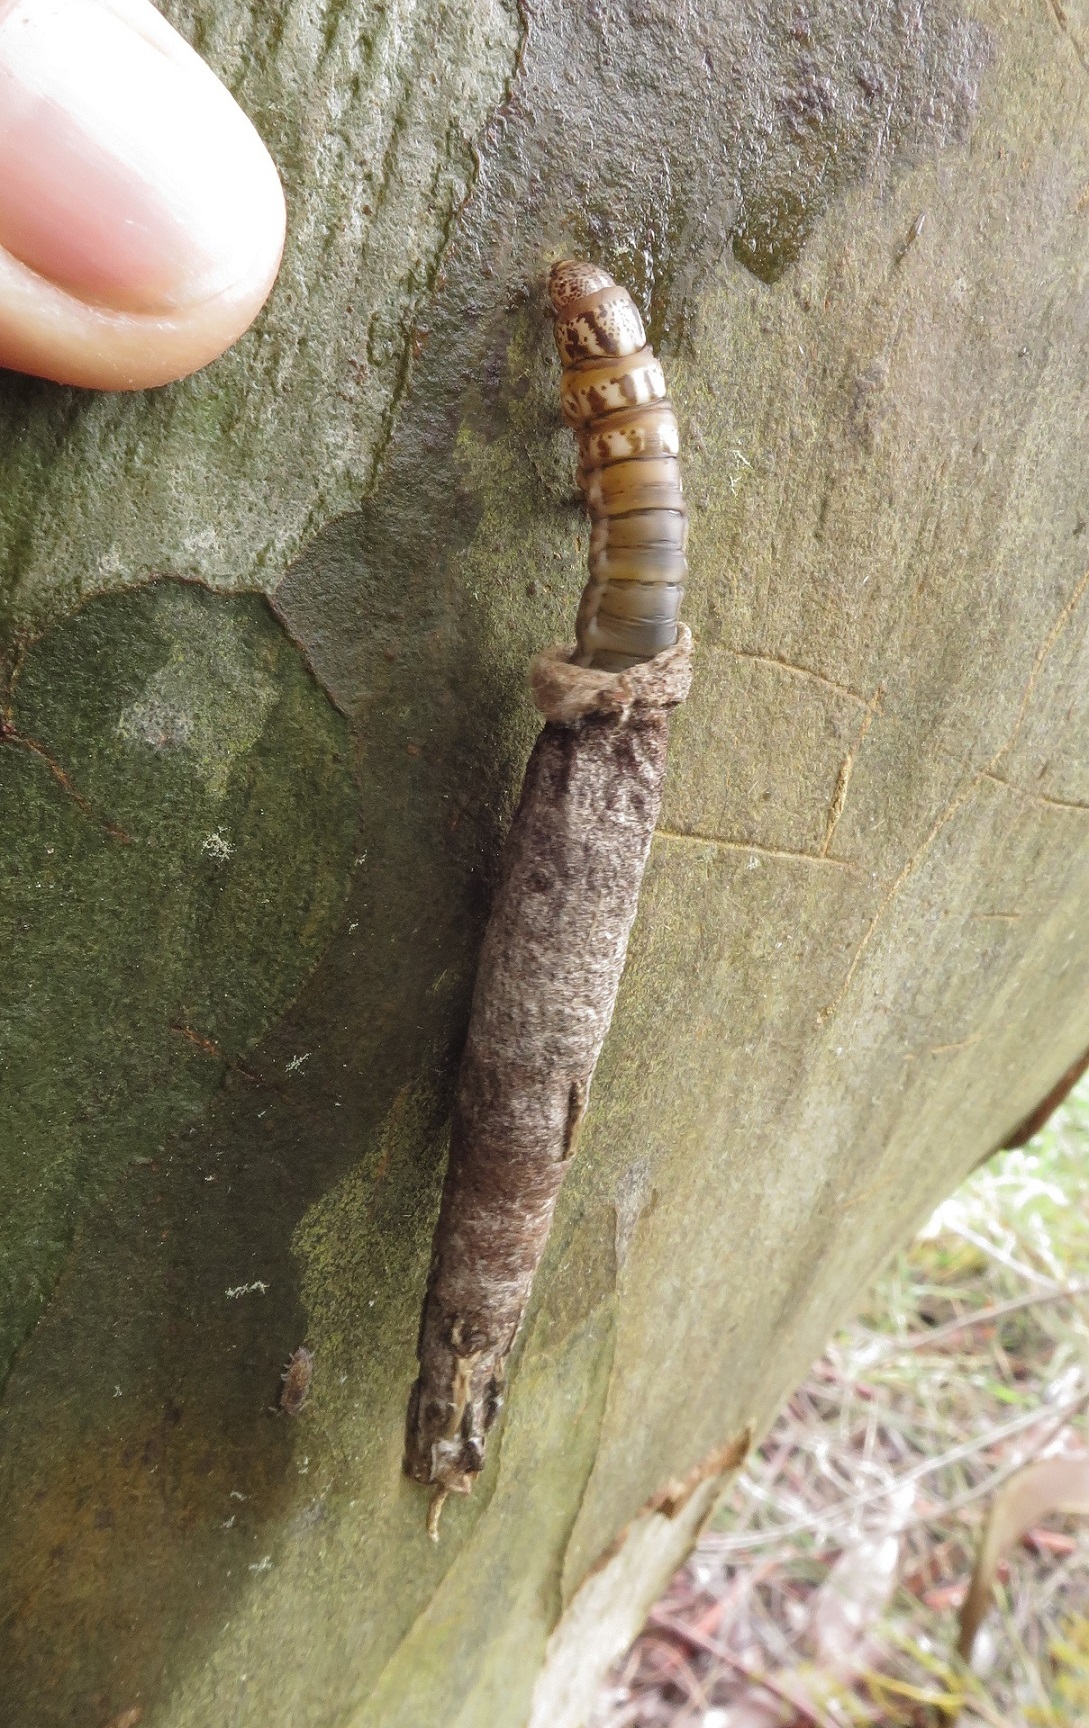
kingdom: Animalia
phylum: Arthropoda
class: Insecta
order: Lepidoptera
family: Psychidae
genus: Liothula
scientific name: Liothula omnivora
